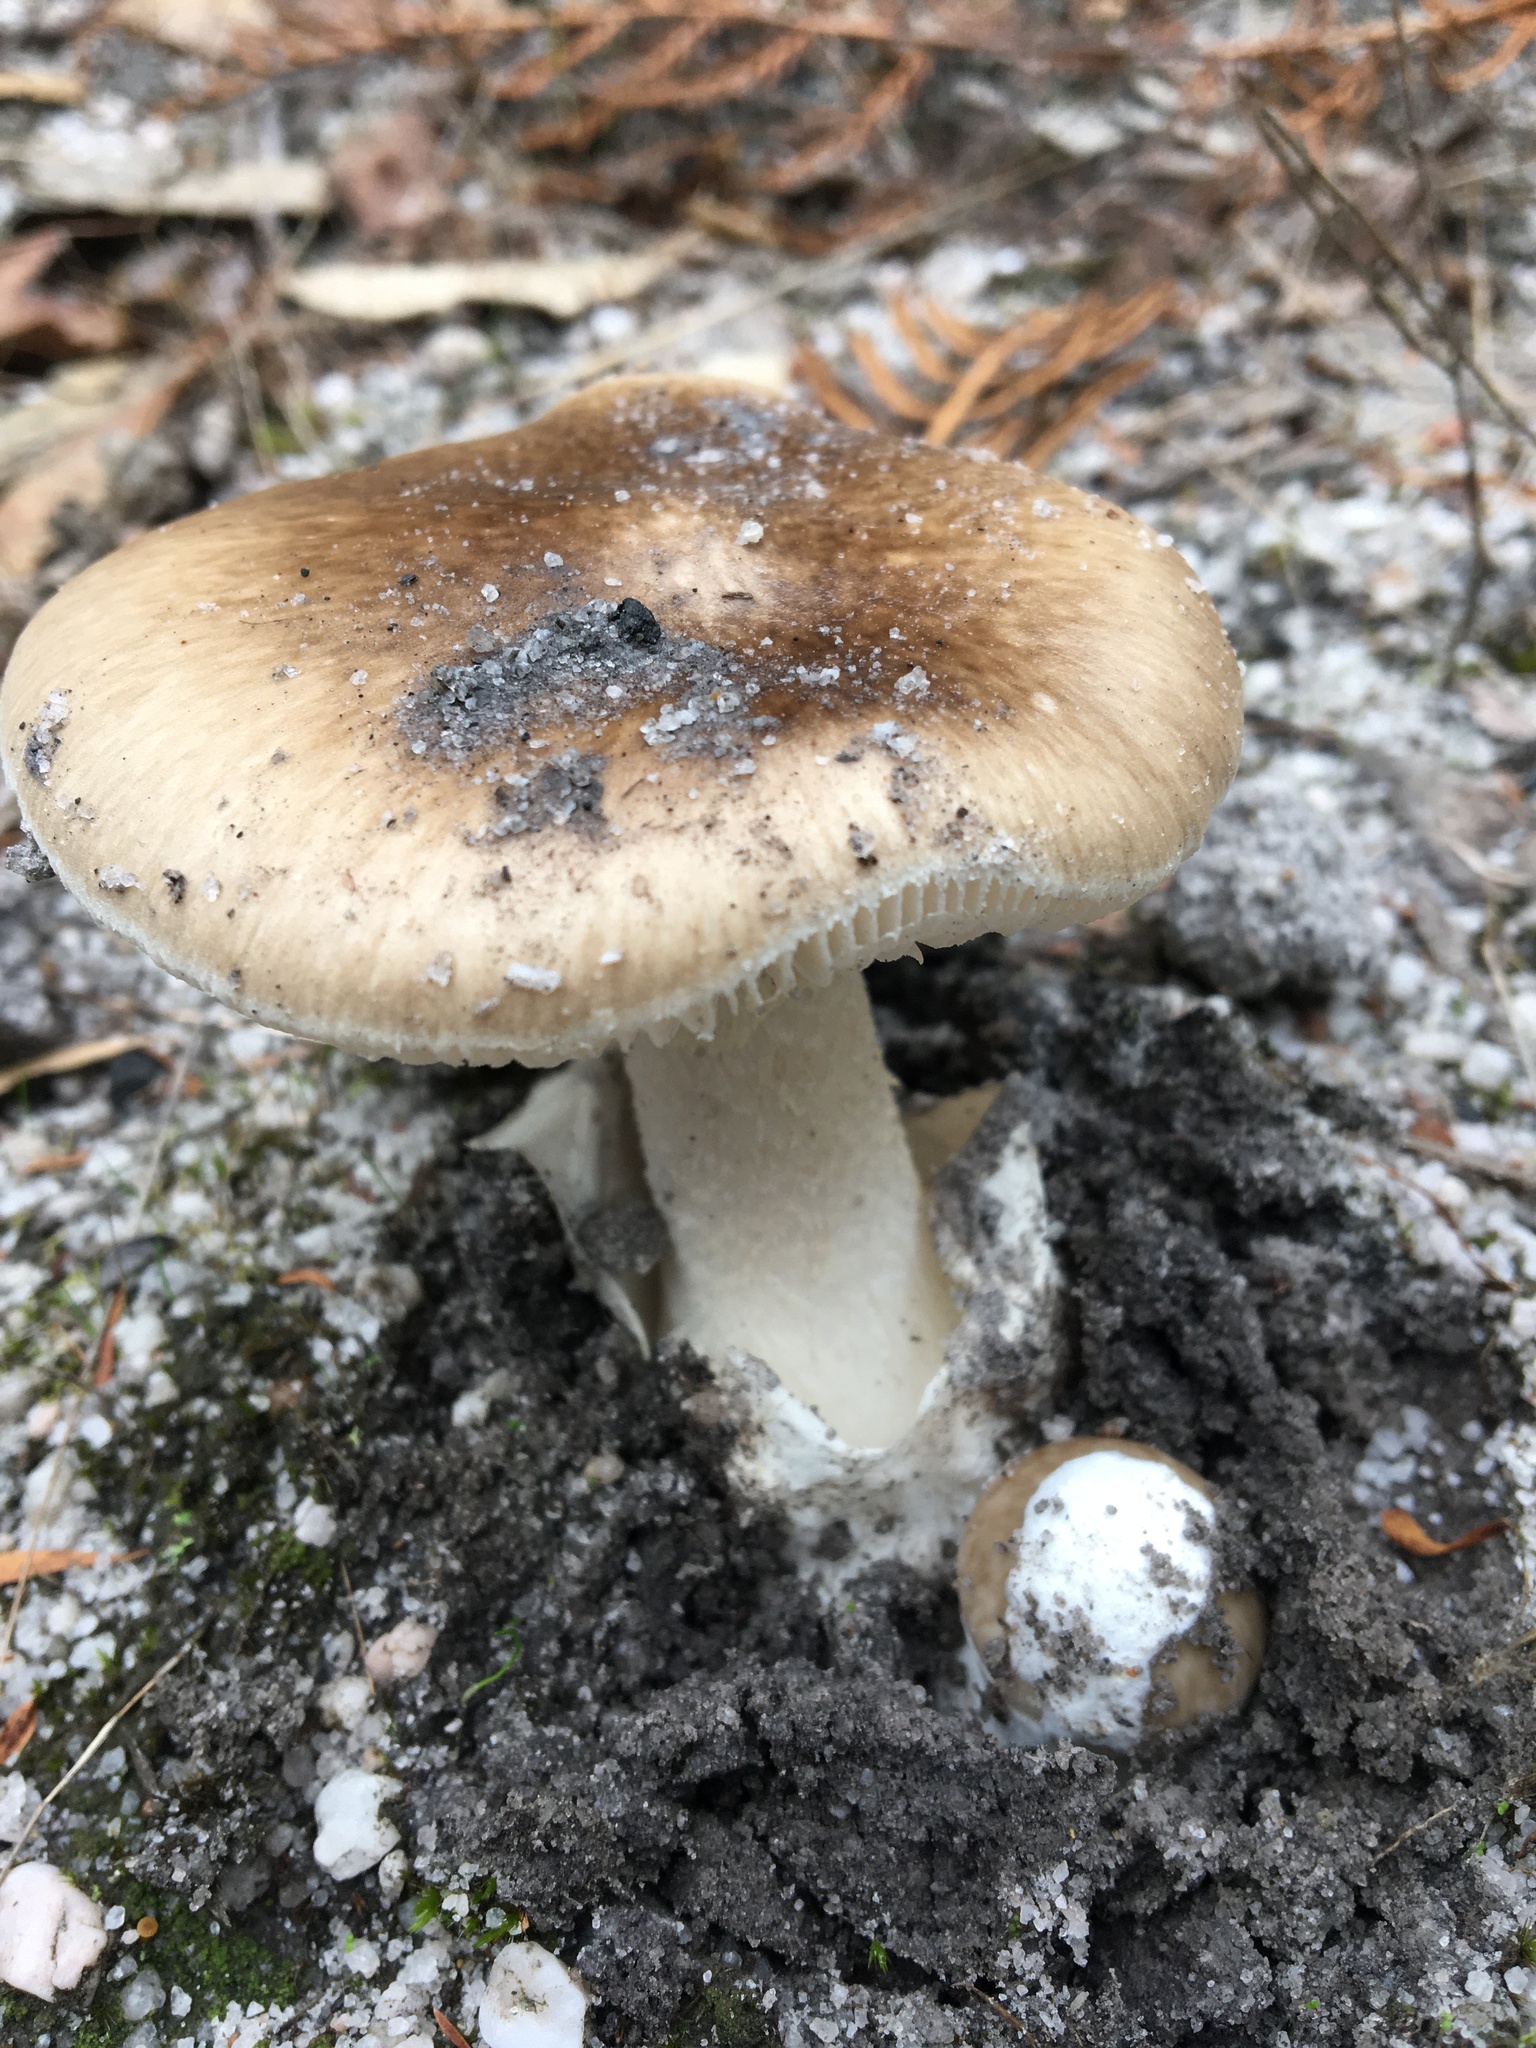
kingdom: Fungi
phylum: Basidiomycota
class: Agaricomycetes
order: Agaricales
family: Amanitaceae
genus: Amanita
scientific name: Amanita marmorata
